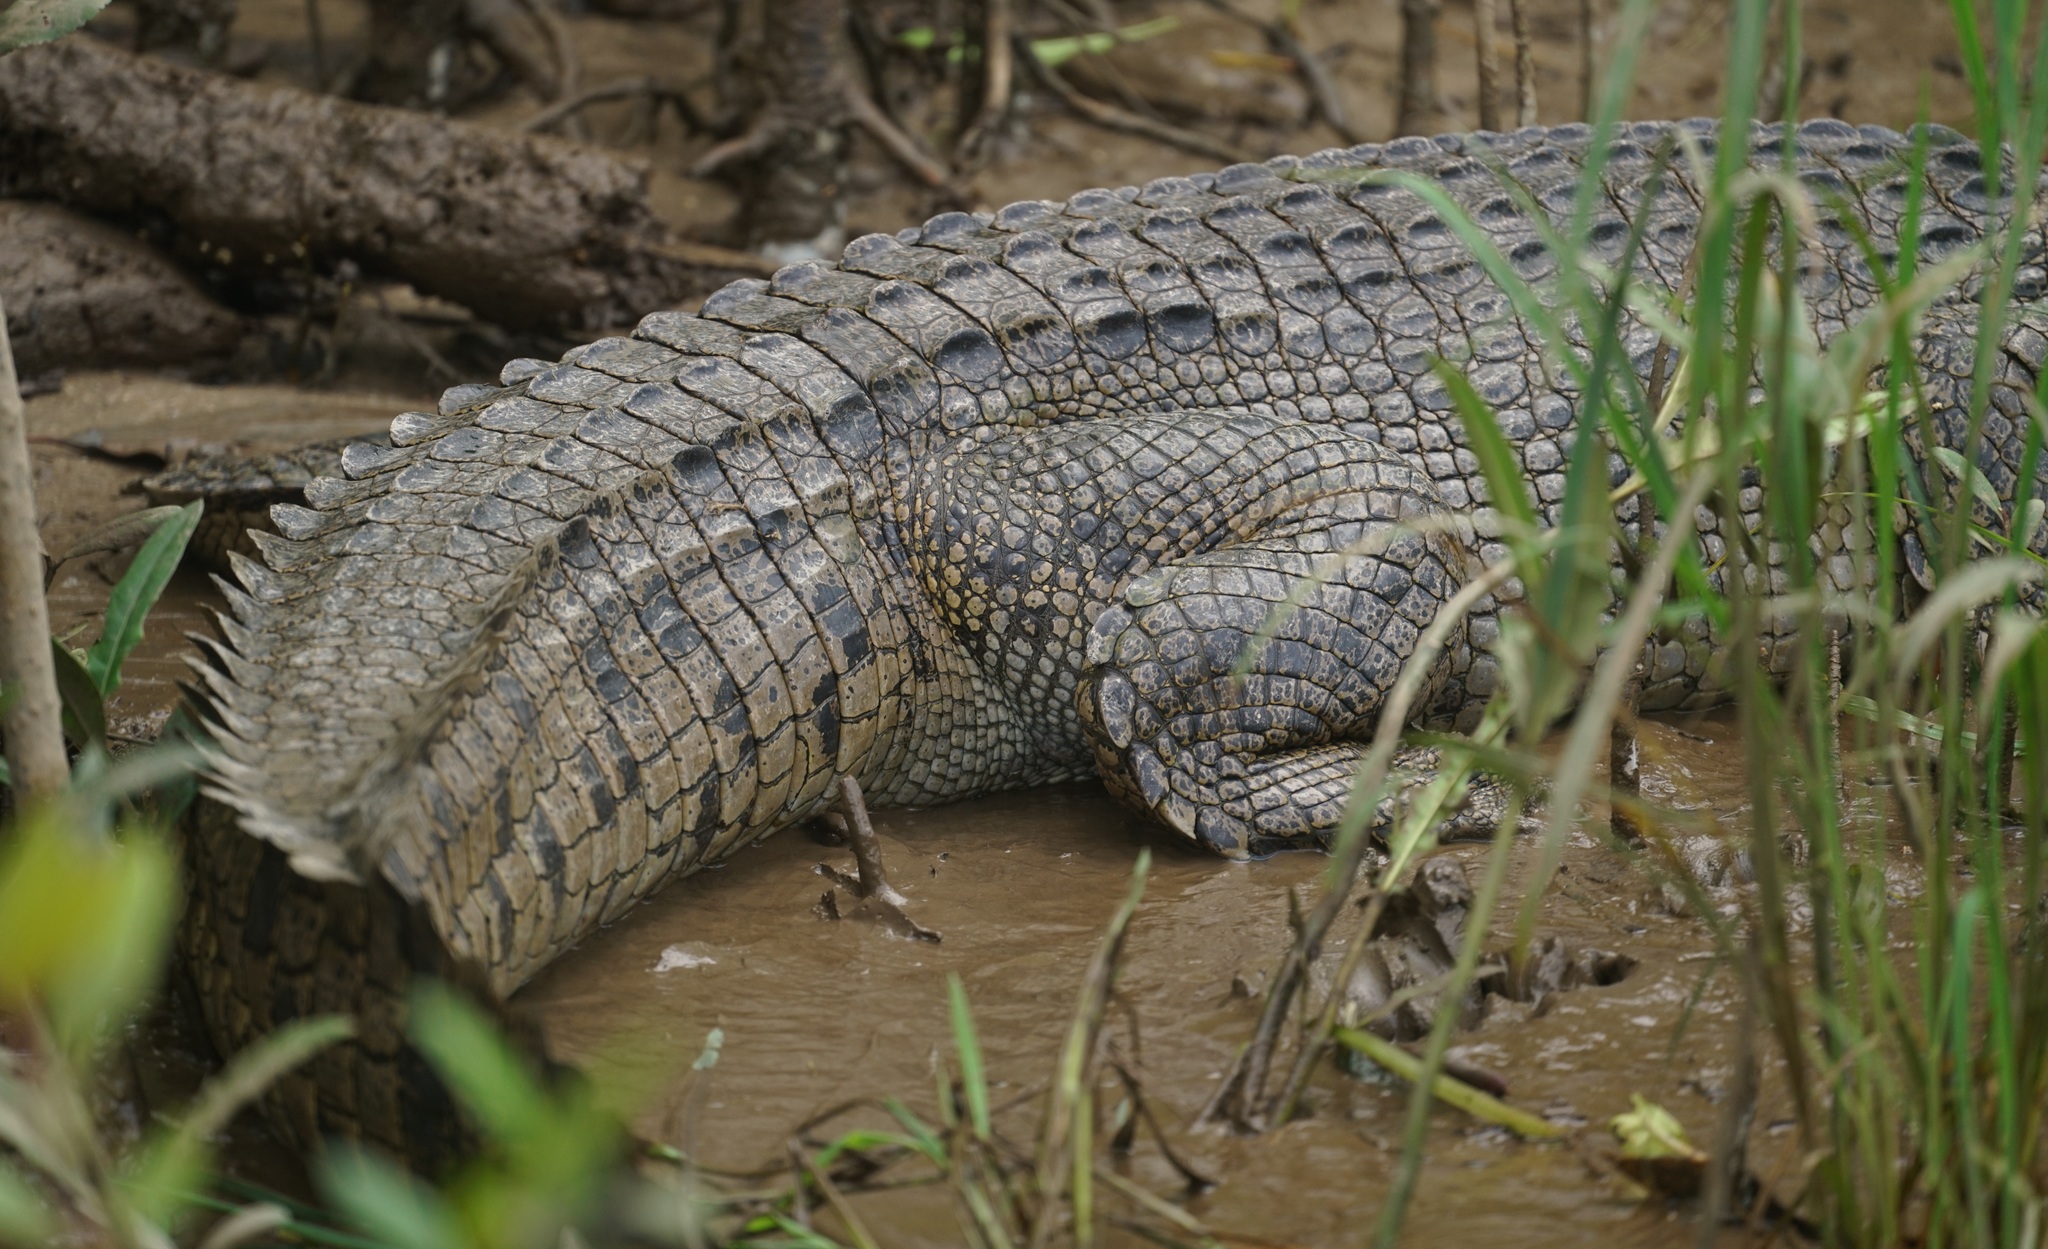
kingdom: Animalia
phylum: Chordata
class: Crocodylia
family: Crocodylidae
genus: Crocodylus
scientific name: Crocodylus porosus
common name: Saltwater crocodile
